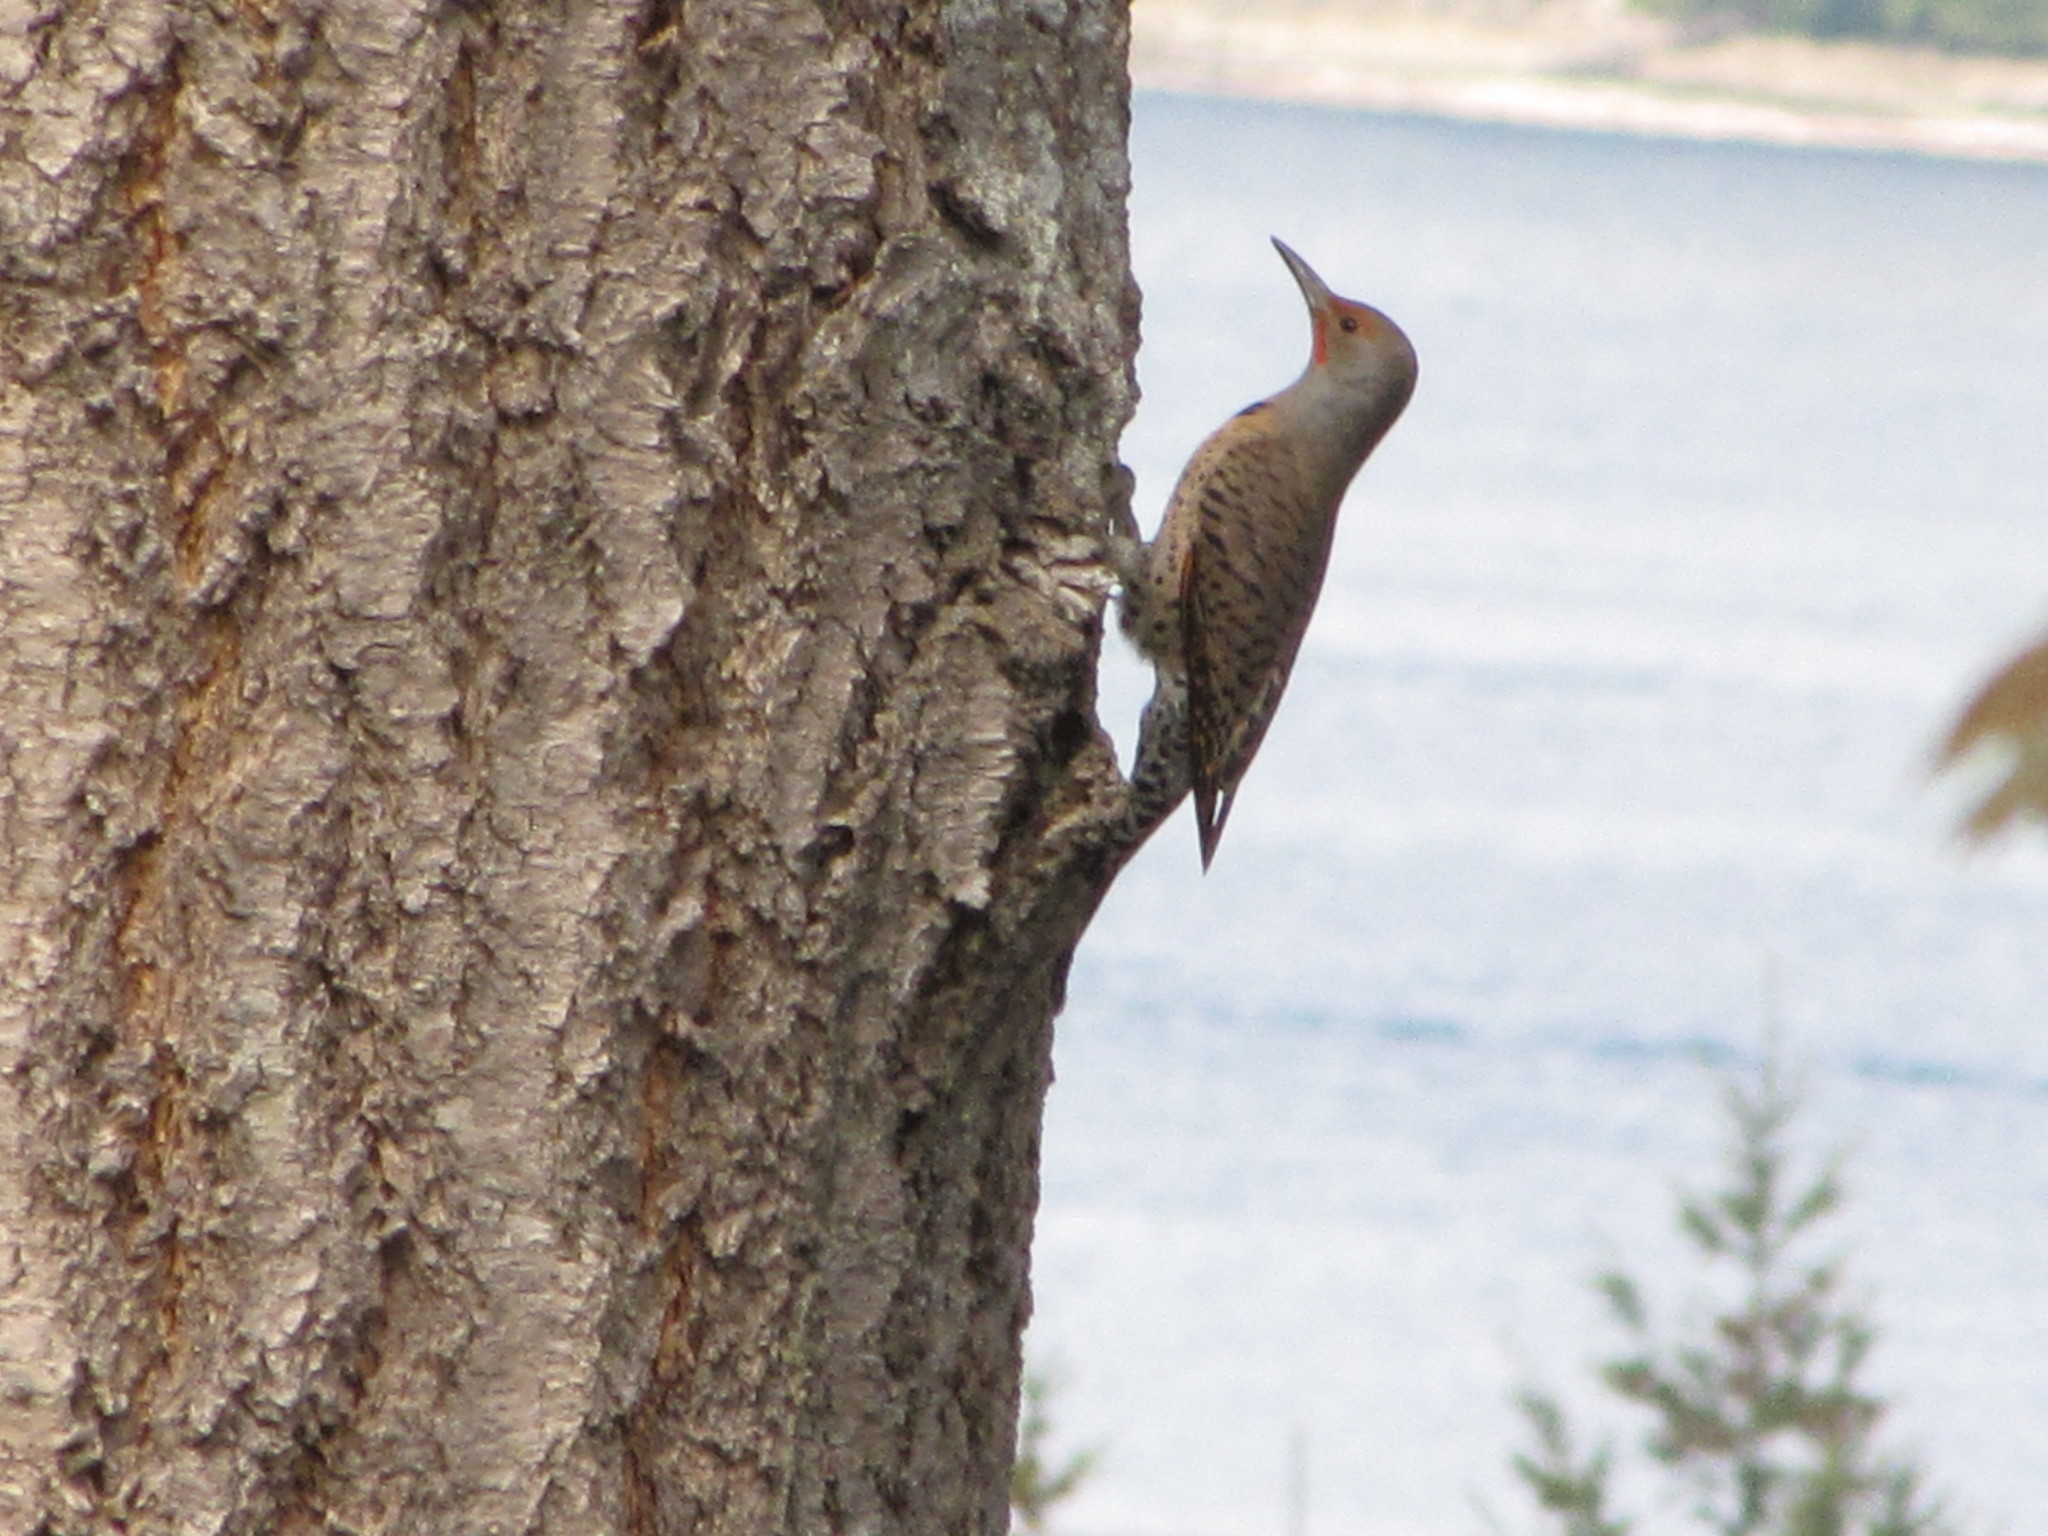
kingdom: Animalia
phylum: Chordata
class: Aves
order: Piciformes
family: Picidae
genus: Colaptes
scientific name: Colaptes auratus
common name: Northern flicker
